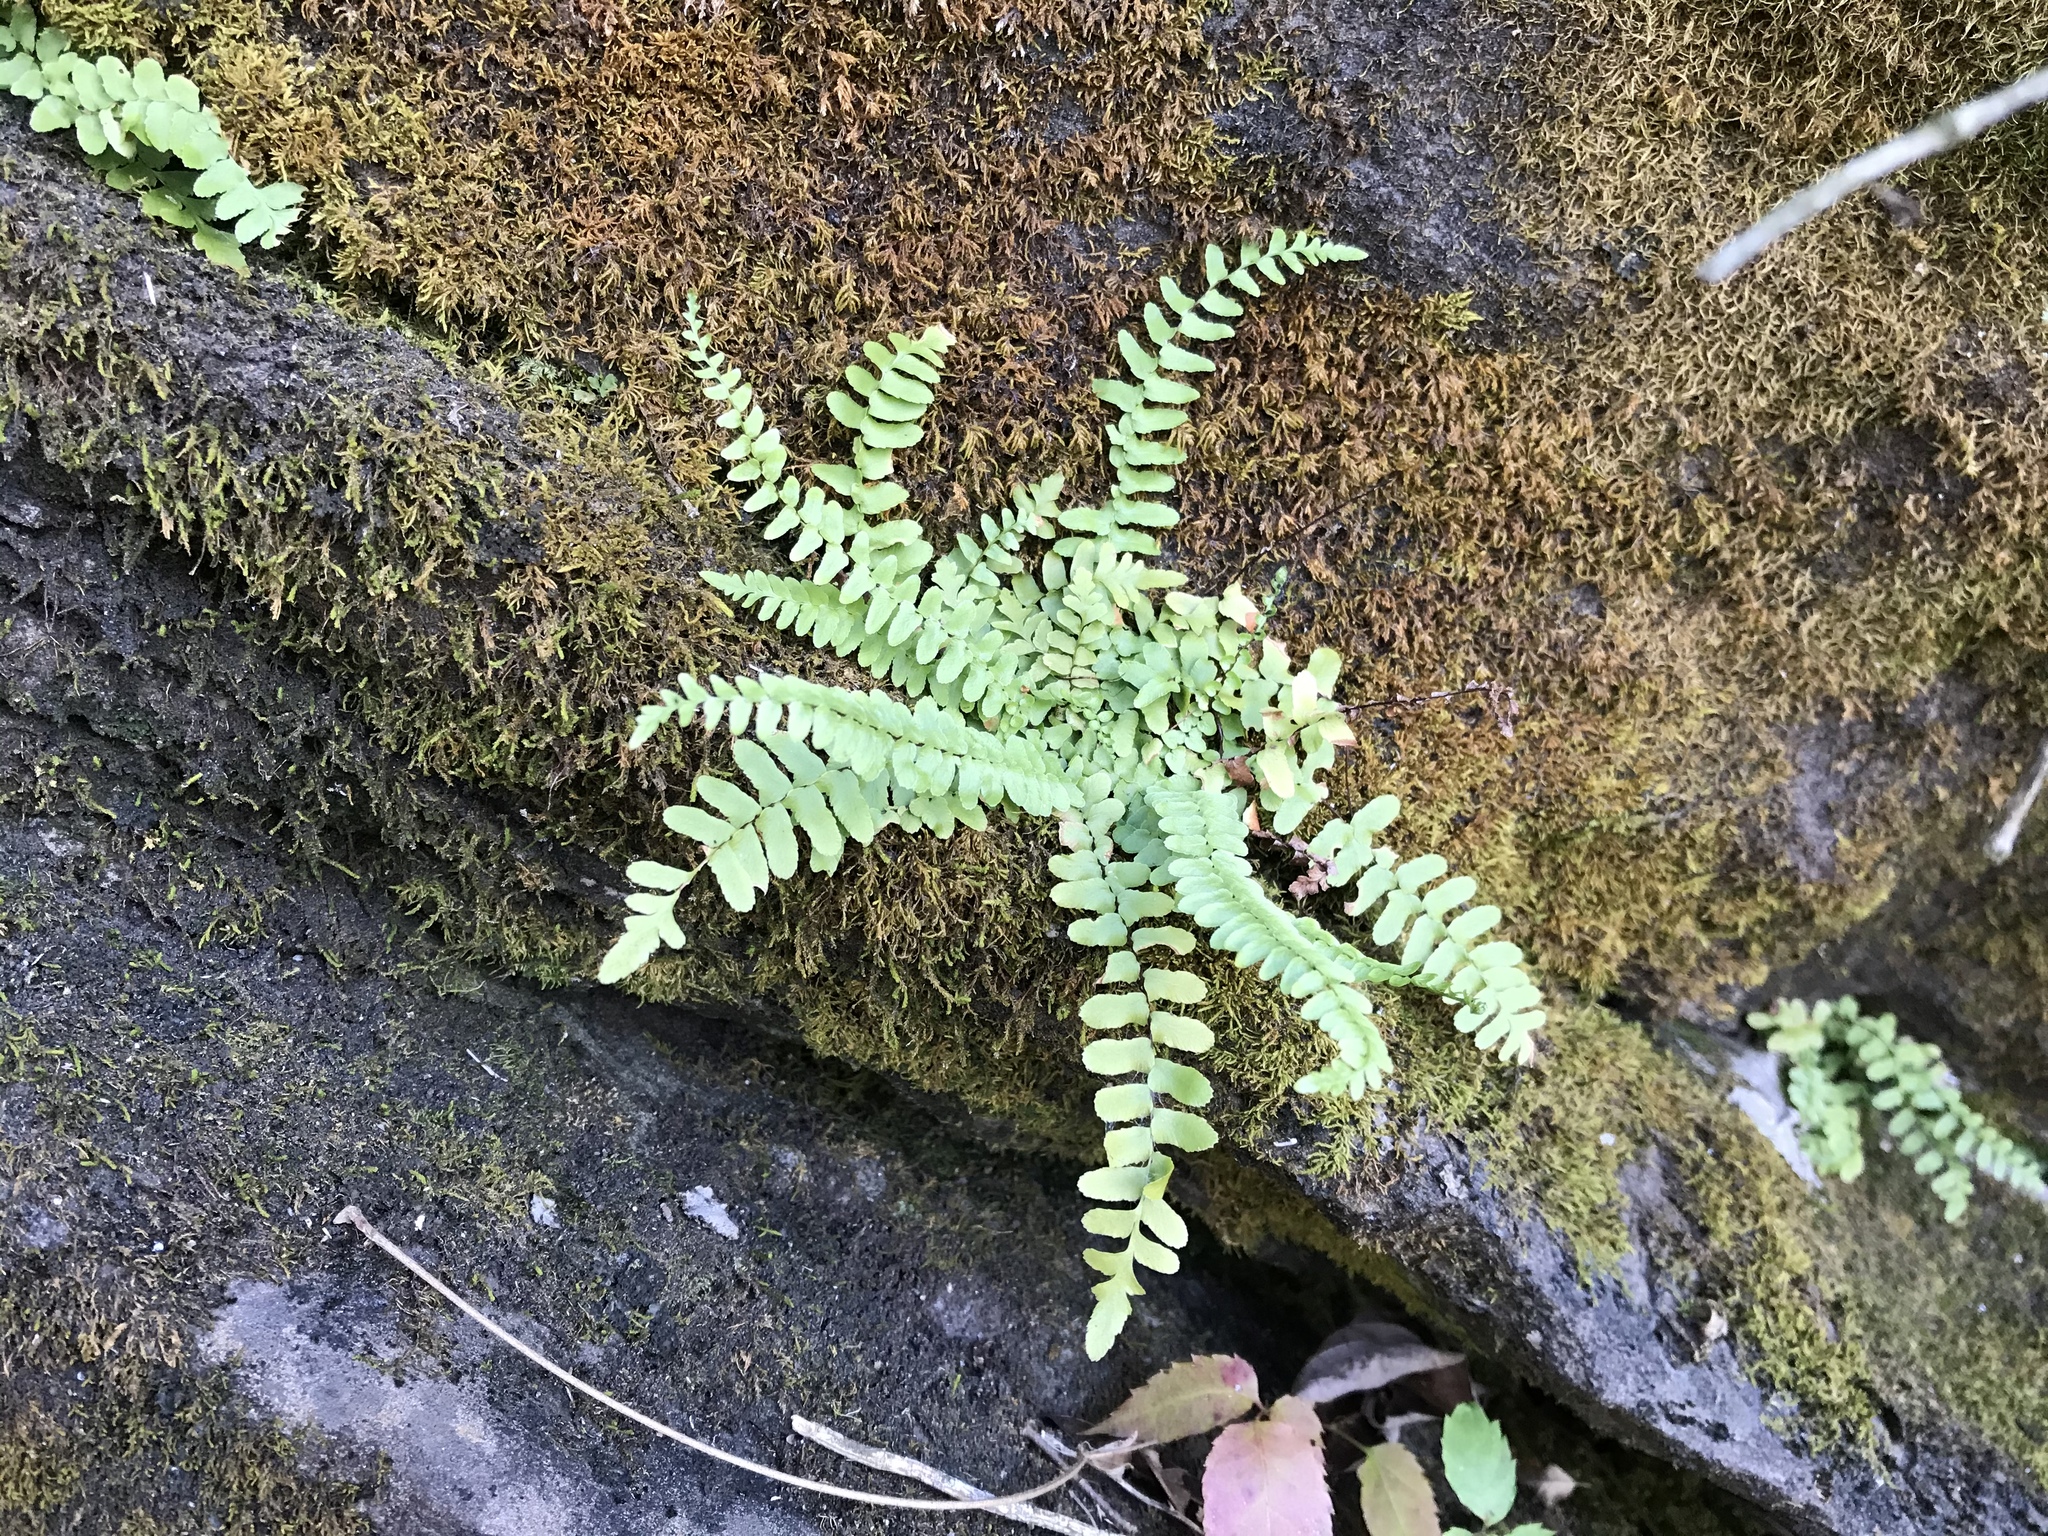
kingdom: Plantae
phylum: Tracheophyta
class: Polypodiopsida
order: Polypodiales
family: Aspleniaceae
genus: Asplenium
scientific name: Asplenium platyneuron
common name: Ebony spleenwort
